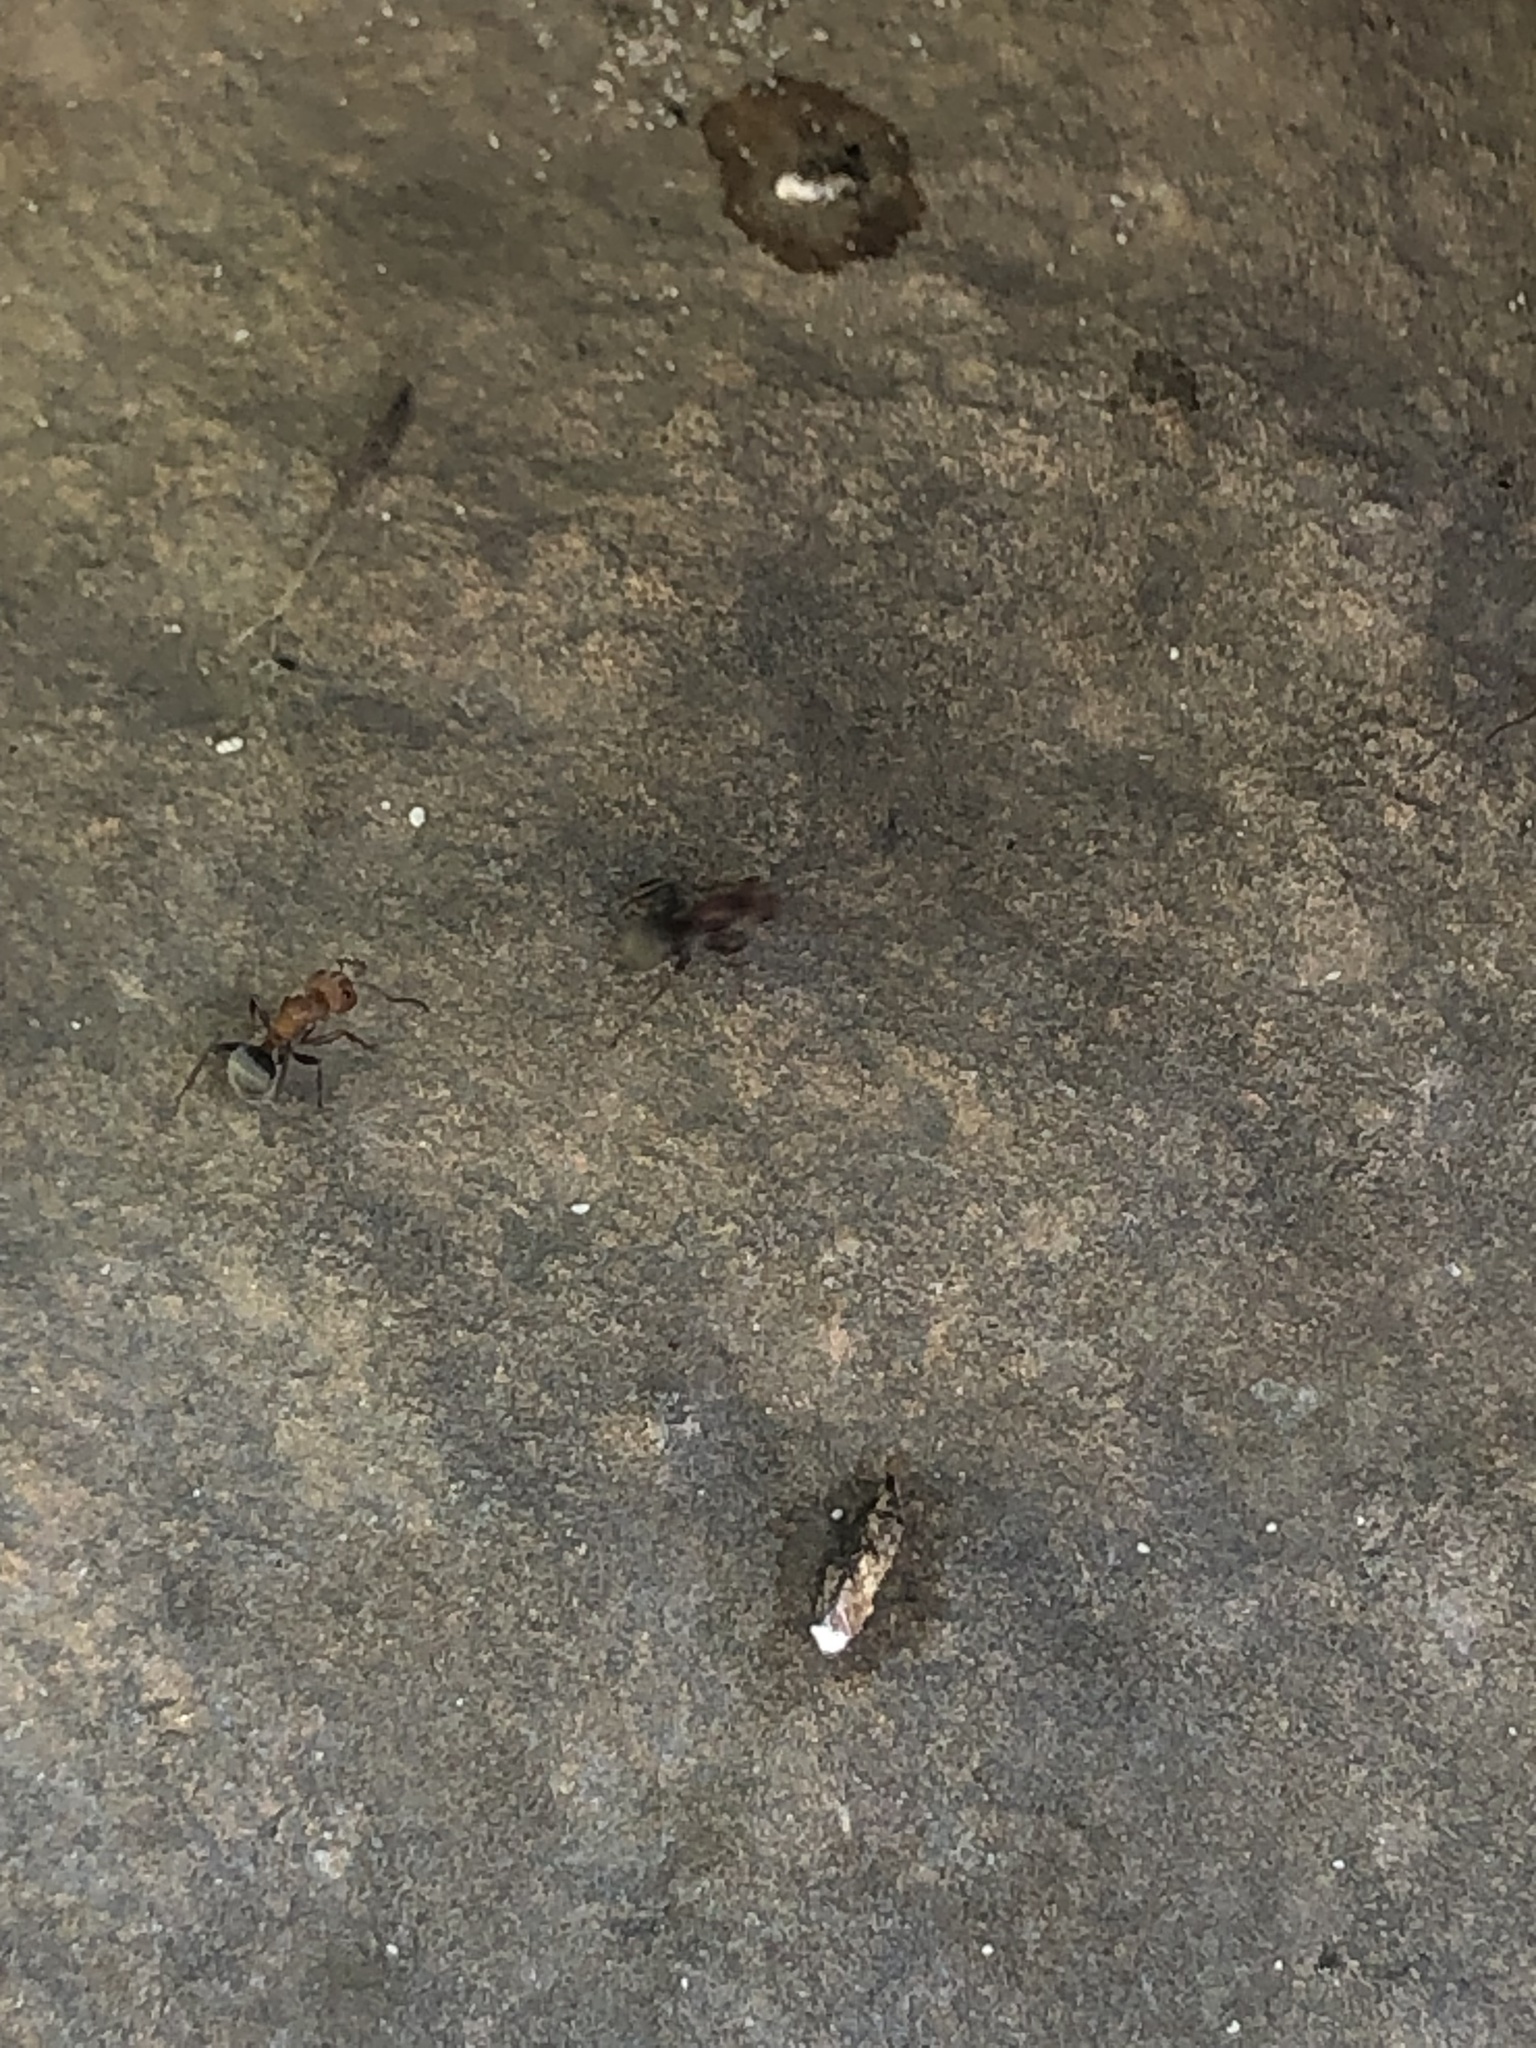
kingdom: Animalia
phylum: Arthropoda
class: Insecta
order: Hymenoptera
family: Formicidae
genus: Camponotus
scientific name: Camponotus planatus
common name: Compact carpenter ant
